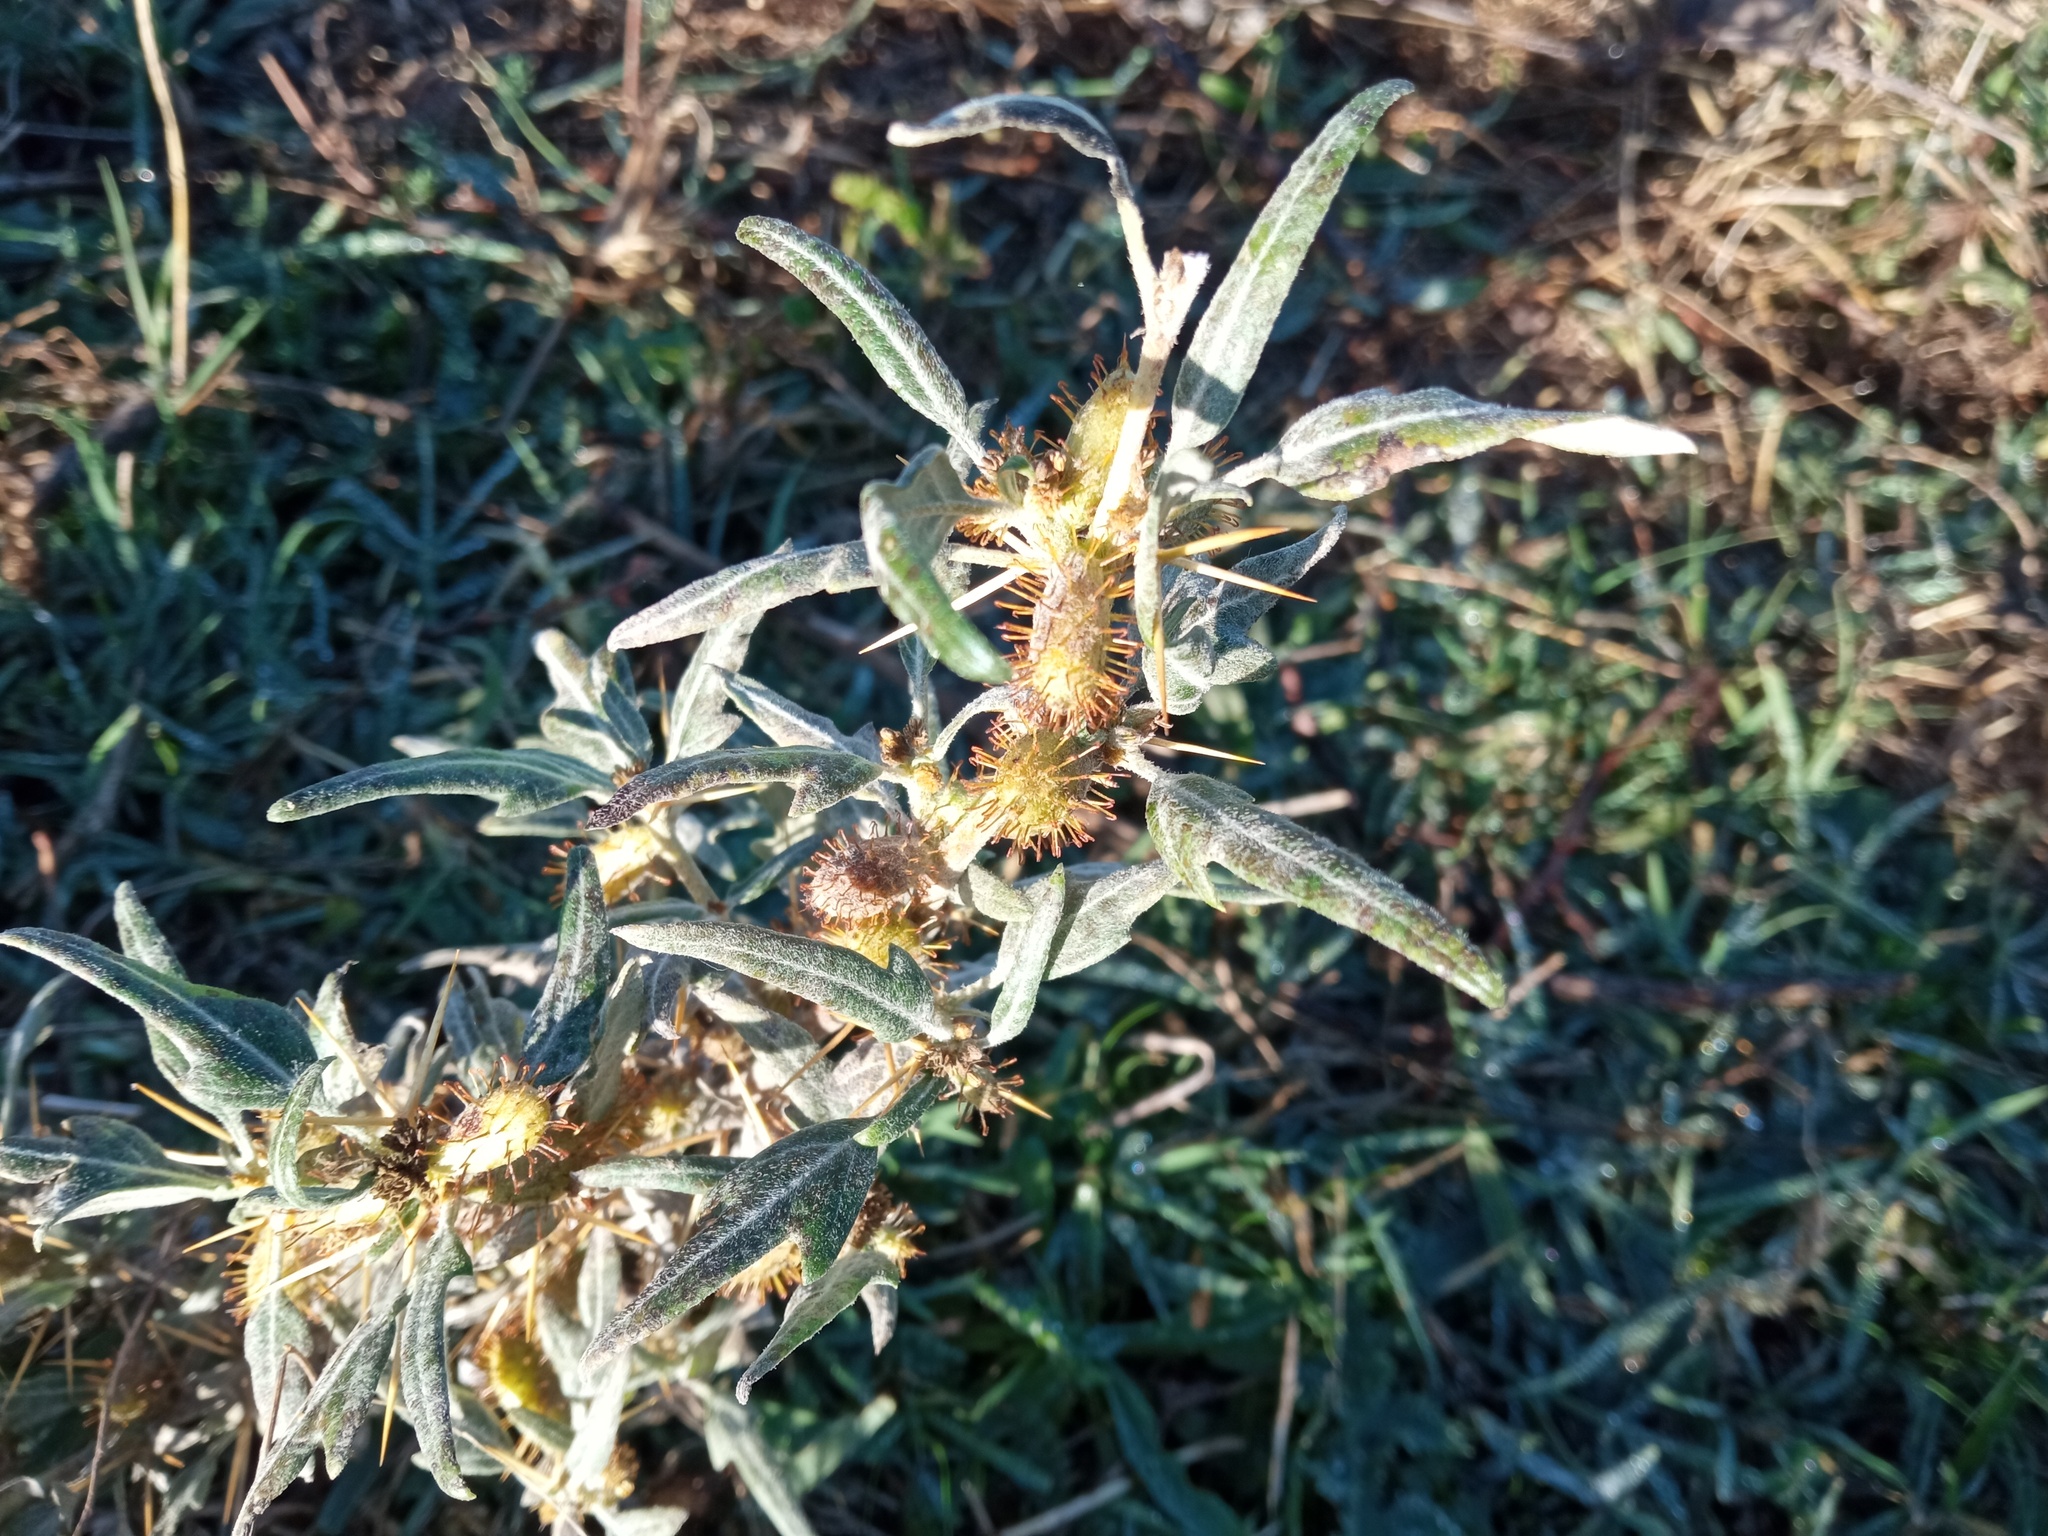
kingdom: Plantae
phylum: Tracheophyta
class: Magnoliopsida
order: Asterales
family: Asteraceae
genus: Xanthium
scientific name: Xanthium spinosum
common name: Spiny cocklebur
